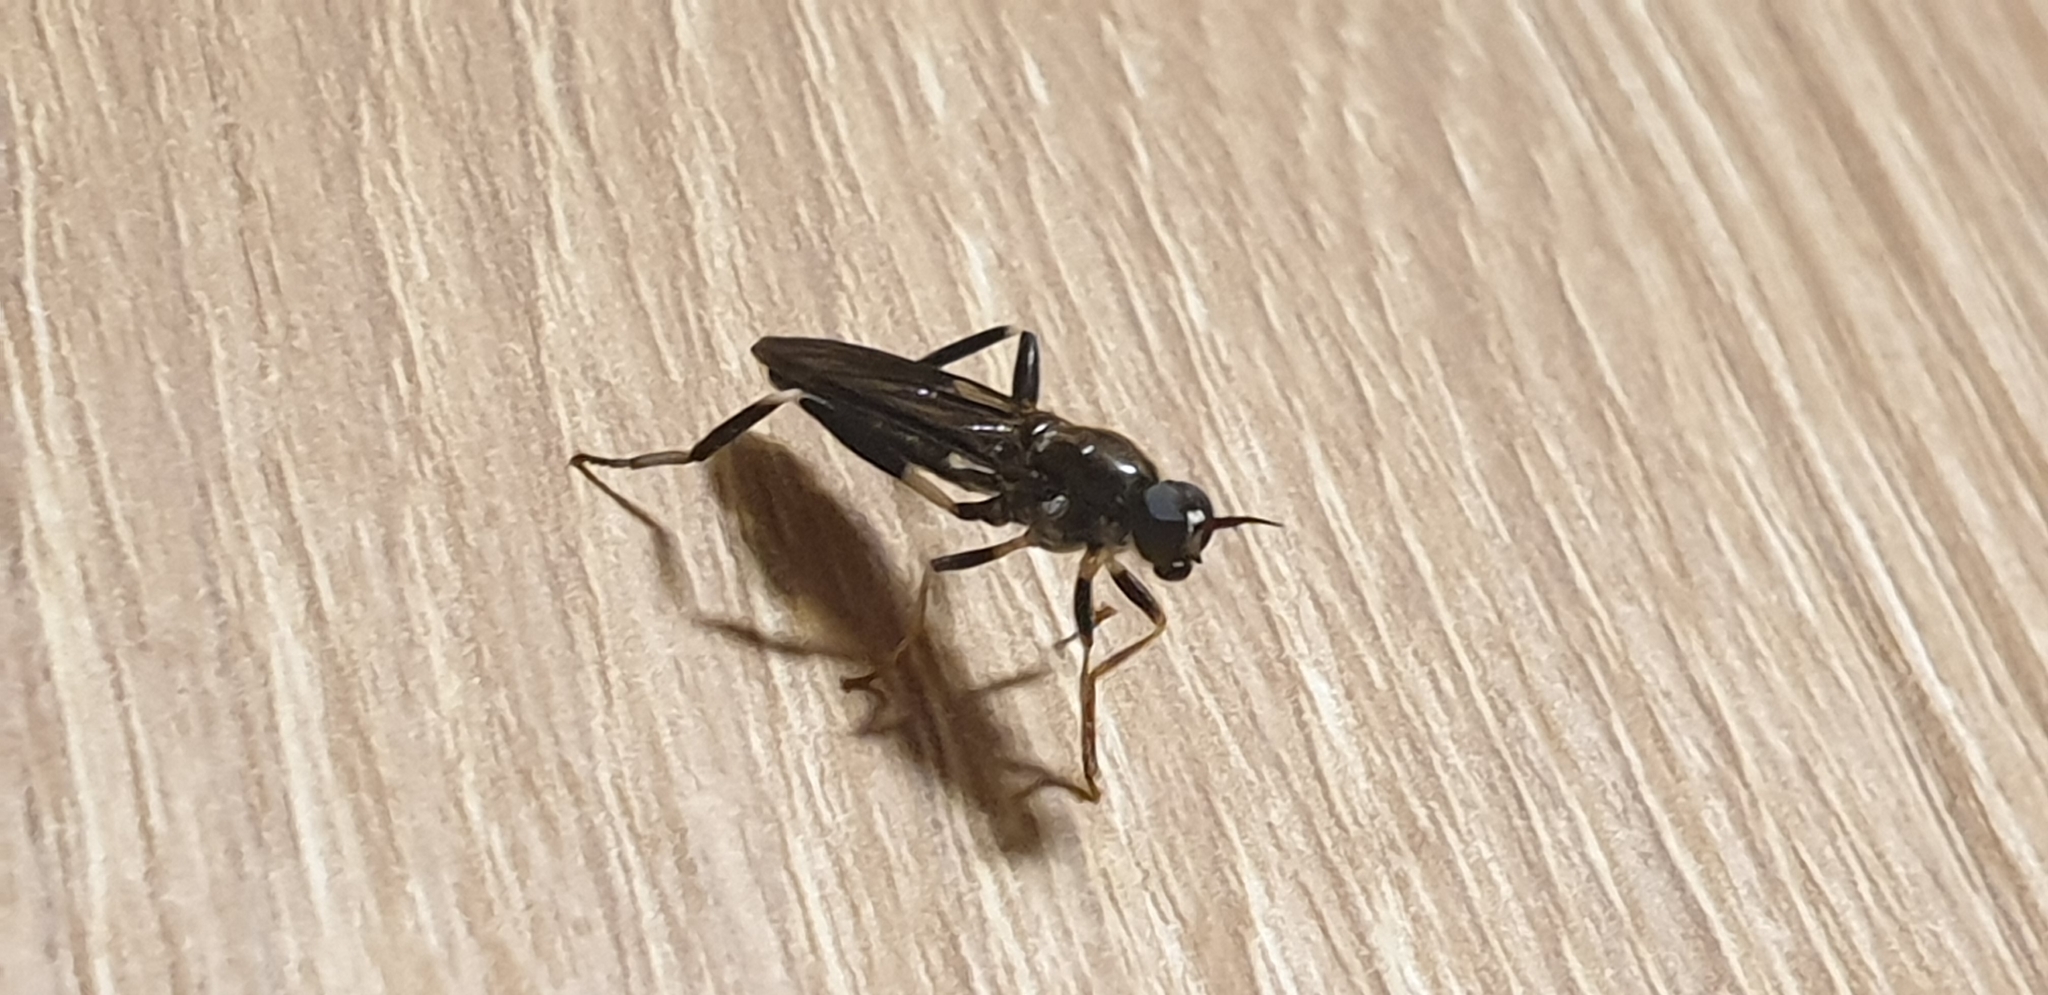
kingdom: Animalia
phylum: Arthropoda
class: Insecta
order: Diptera
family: Stratiomyidae
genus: Exaireta
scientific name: Exaireta spinigera
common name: Blue soldier fly
